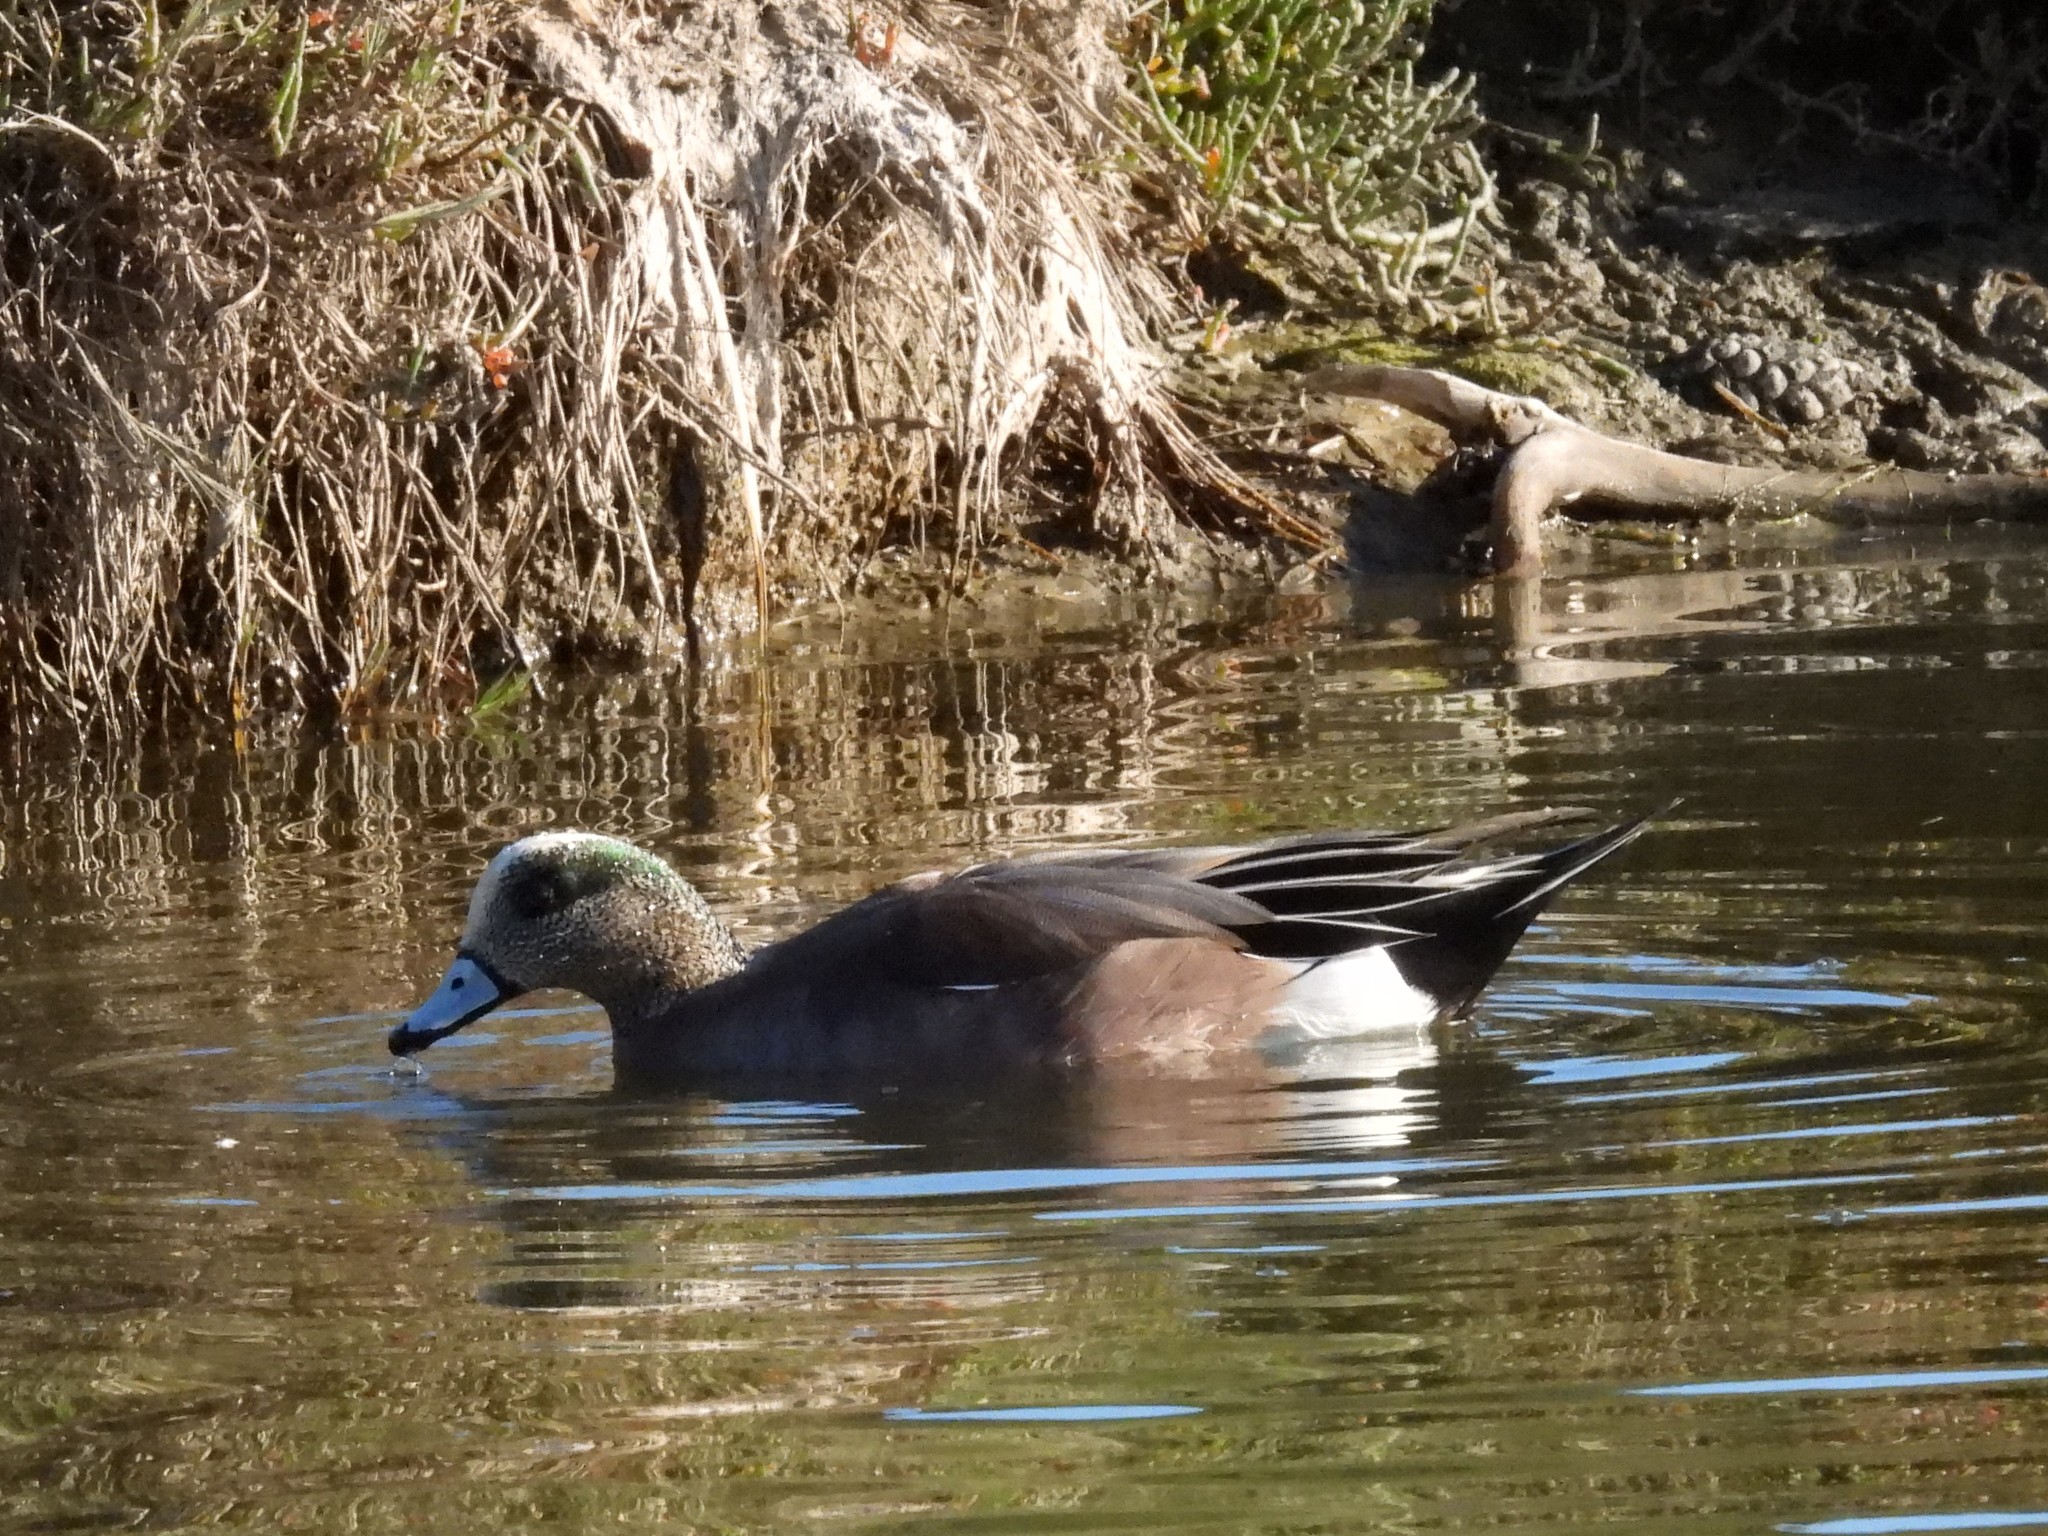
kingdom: Animalia
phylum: Chordata
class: Aves
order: Anseriformes
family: Anatidae
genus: Mareca
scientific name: Mareca americana
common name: American wigeon
